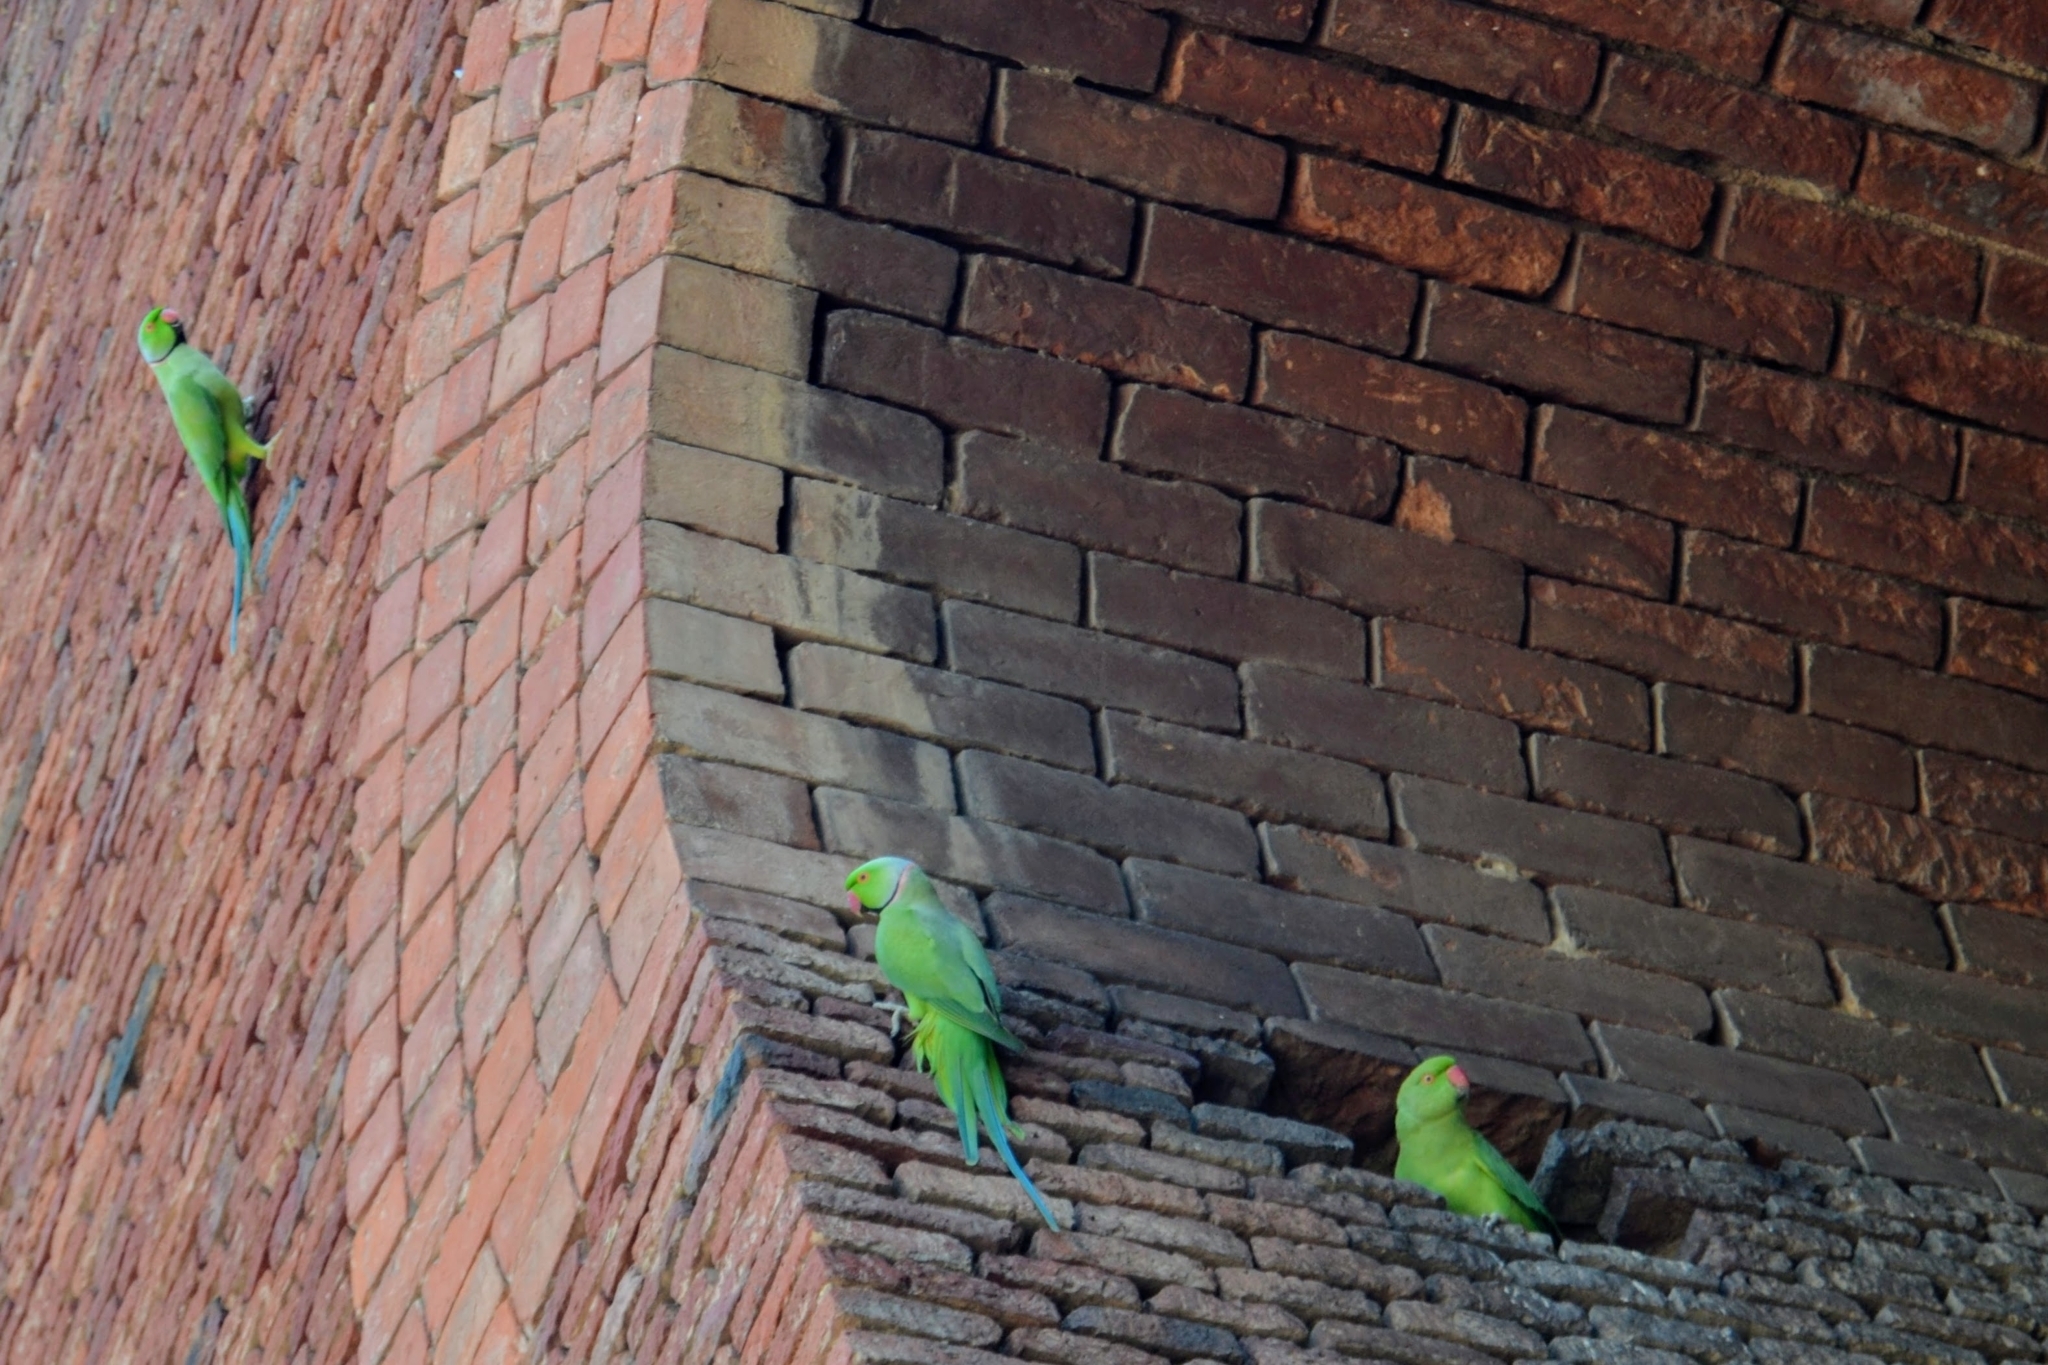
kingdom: Animalia
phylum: Chordata
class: Aves
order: Psittaciformes
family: Psittacidae
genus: Psittacula
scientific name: Psittacula krameri
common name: Rose-ringed parakeet
